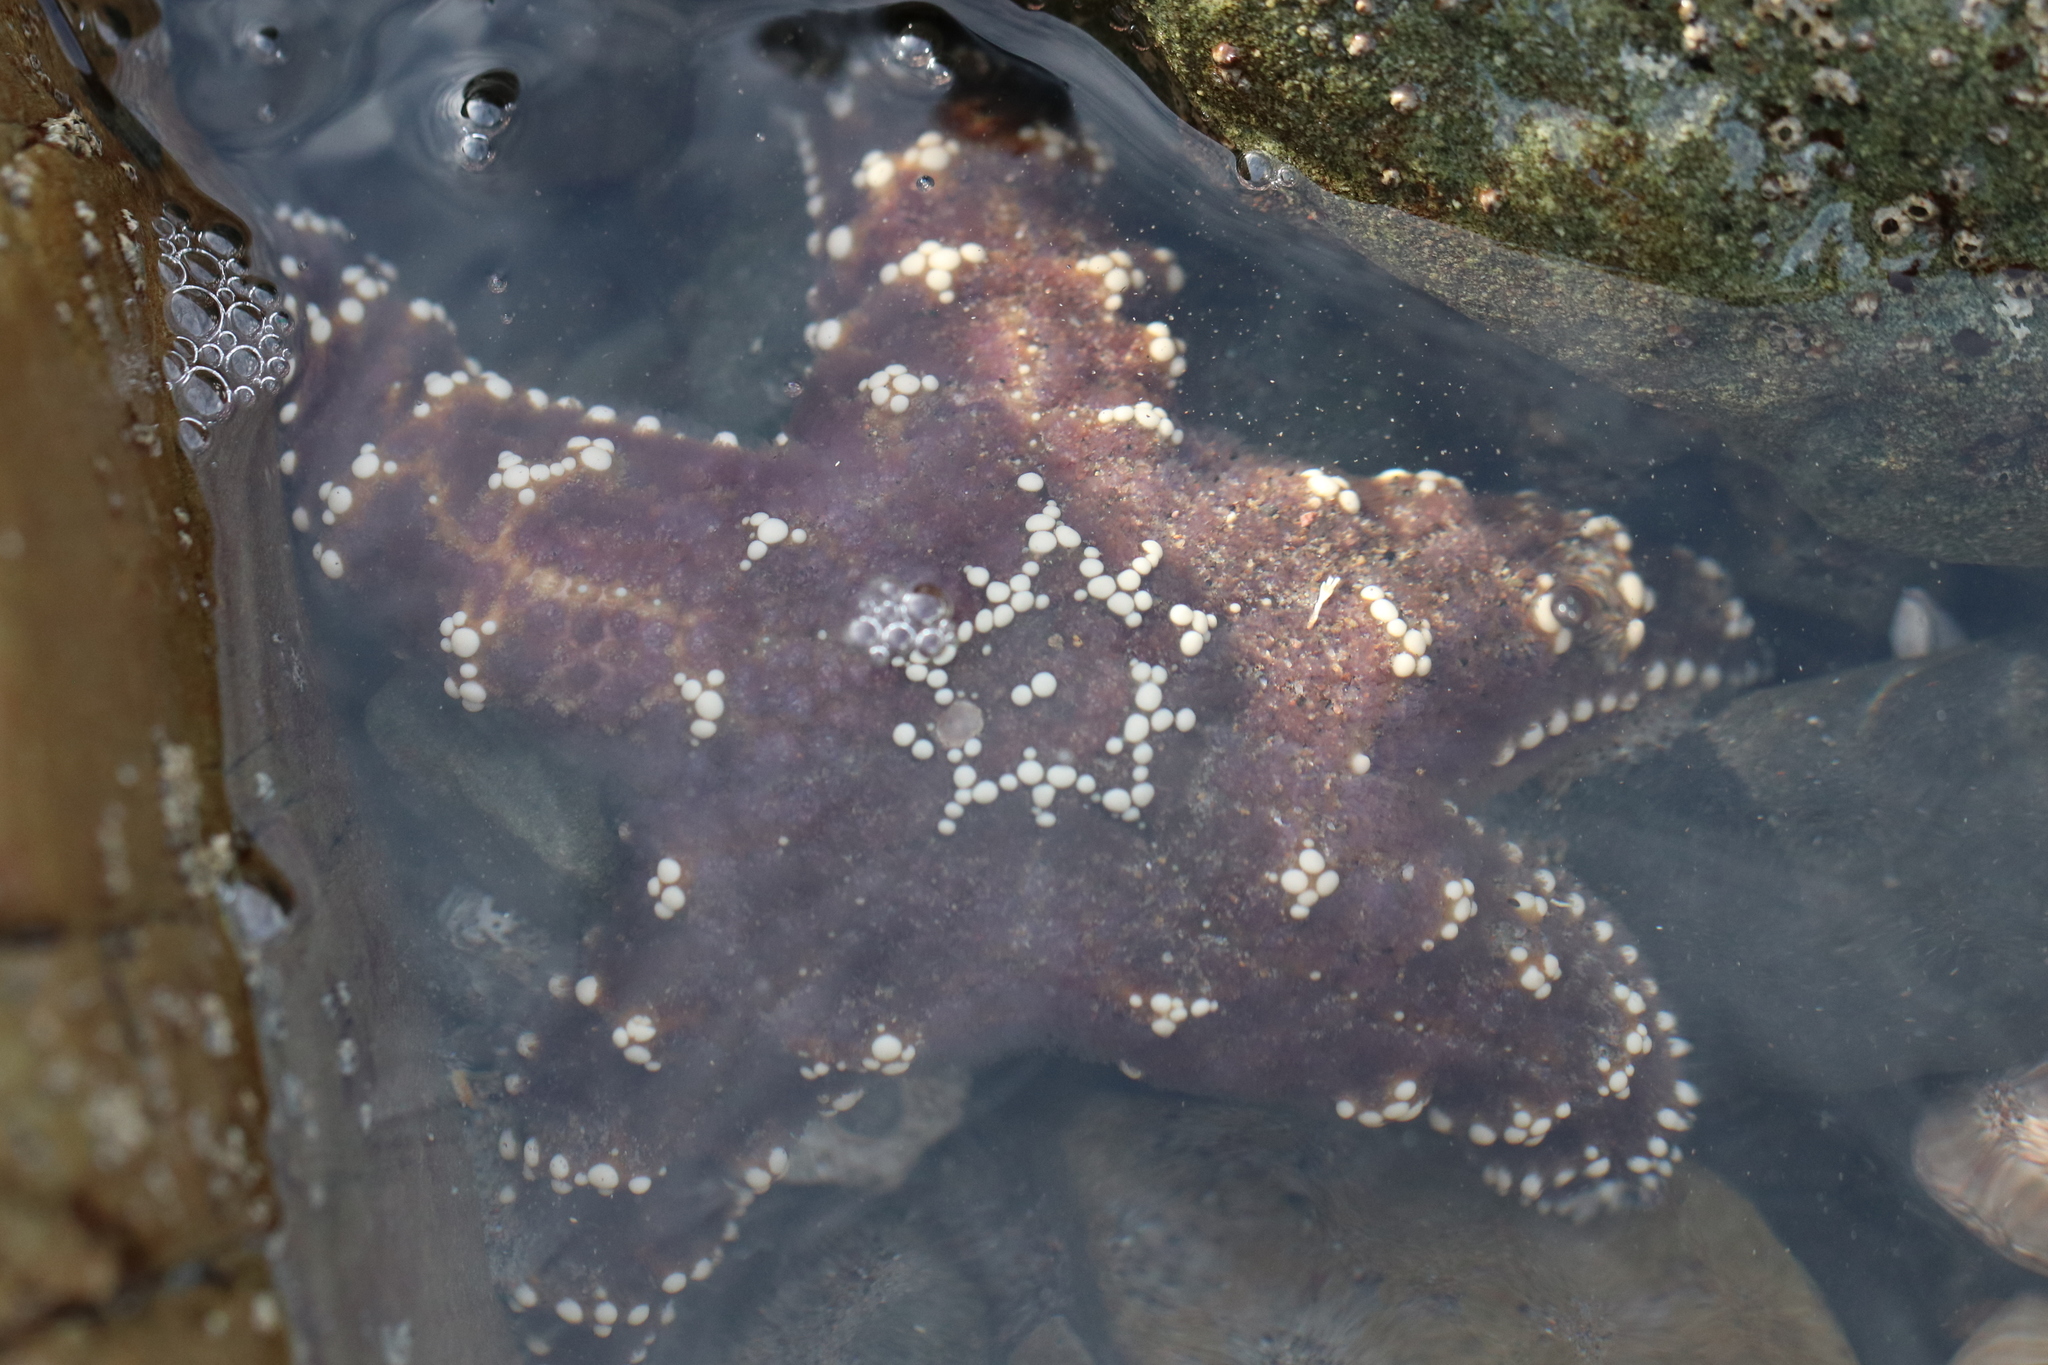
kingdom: Animalia
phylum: Echinodermata
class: Asteroidea
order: Forcipulatida
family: Asteriidae
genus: Pisaster
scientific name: Pisaster ochraceus
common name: Ochre stars
